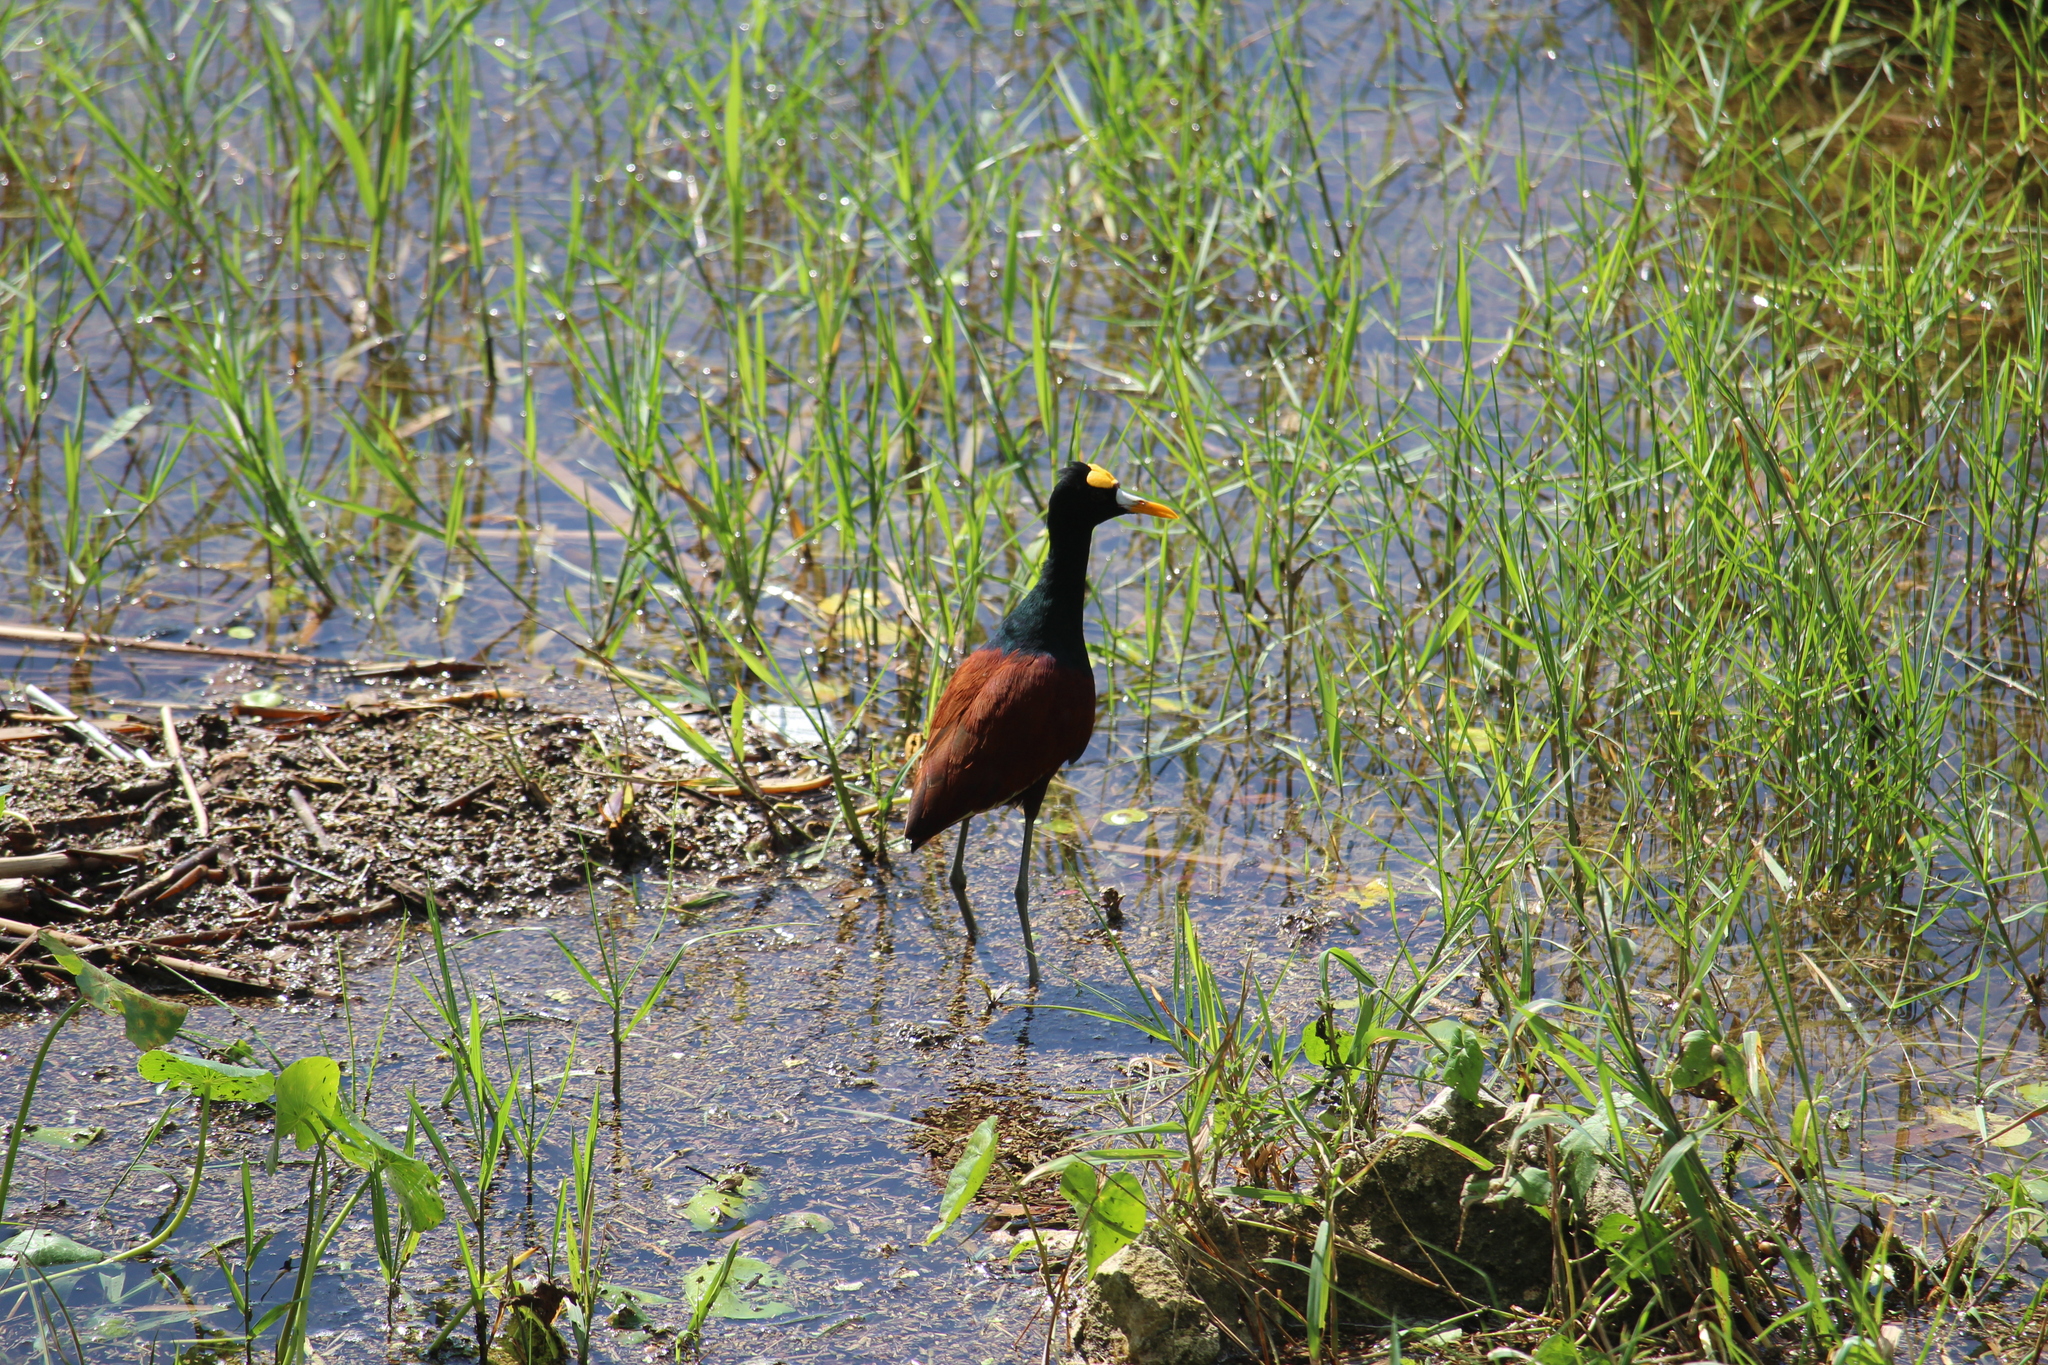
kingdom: Animalia
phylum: Chordata
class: Aves
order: Charadriiformes
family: Jacanidae
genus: Jacana
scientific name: Jacana spinosa
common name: Northern jacana
